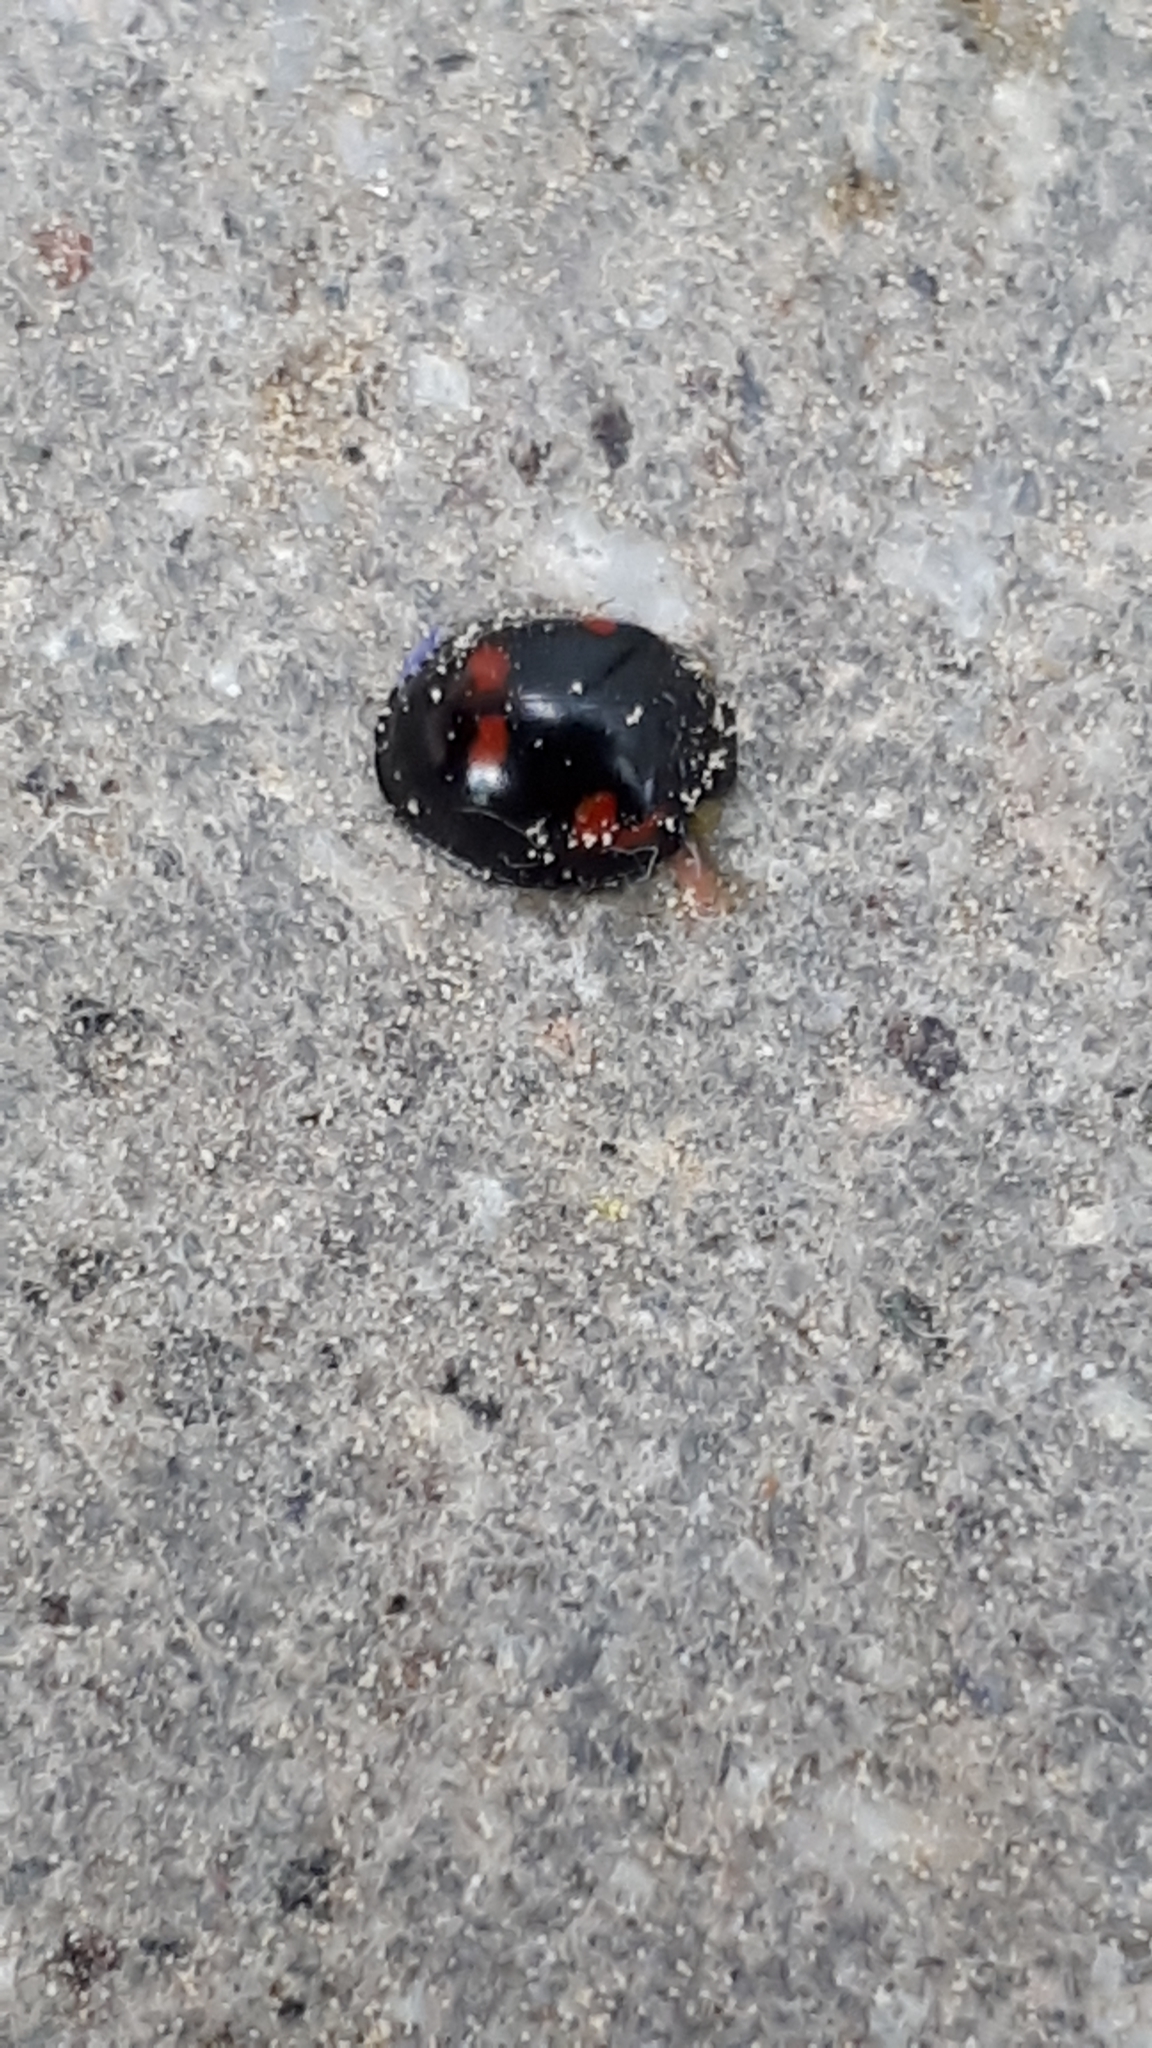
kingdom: Animalia
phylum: Arthropoda
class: Insecta
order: Coleoptera
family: Coccinellidae
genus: Brumus
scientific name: Brumus quadripustulatus
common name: Ladybird beetle
